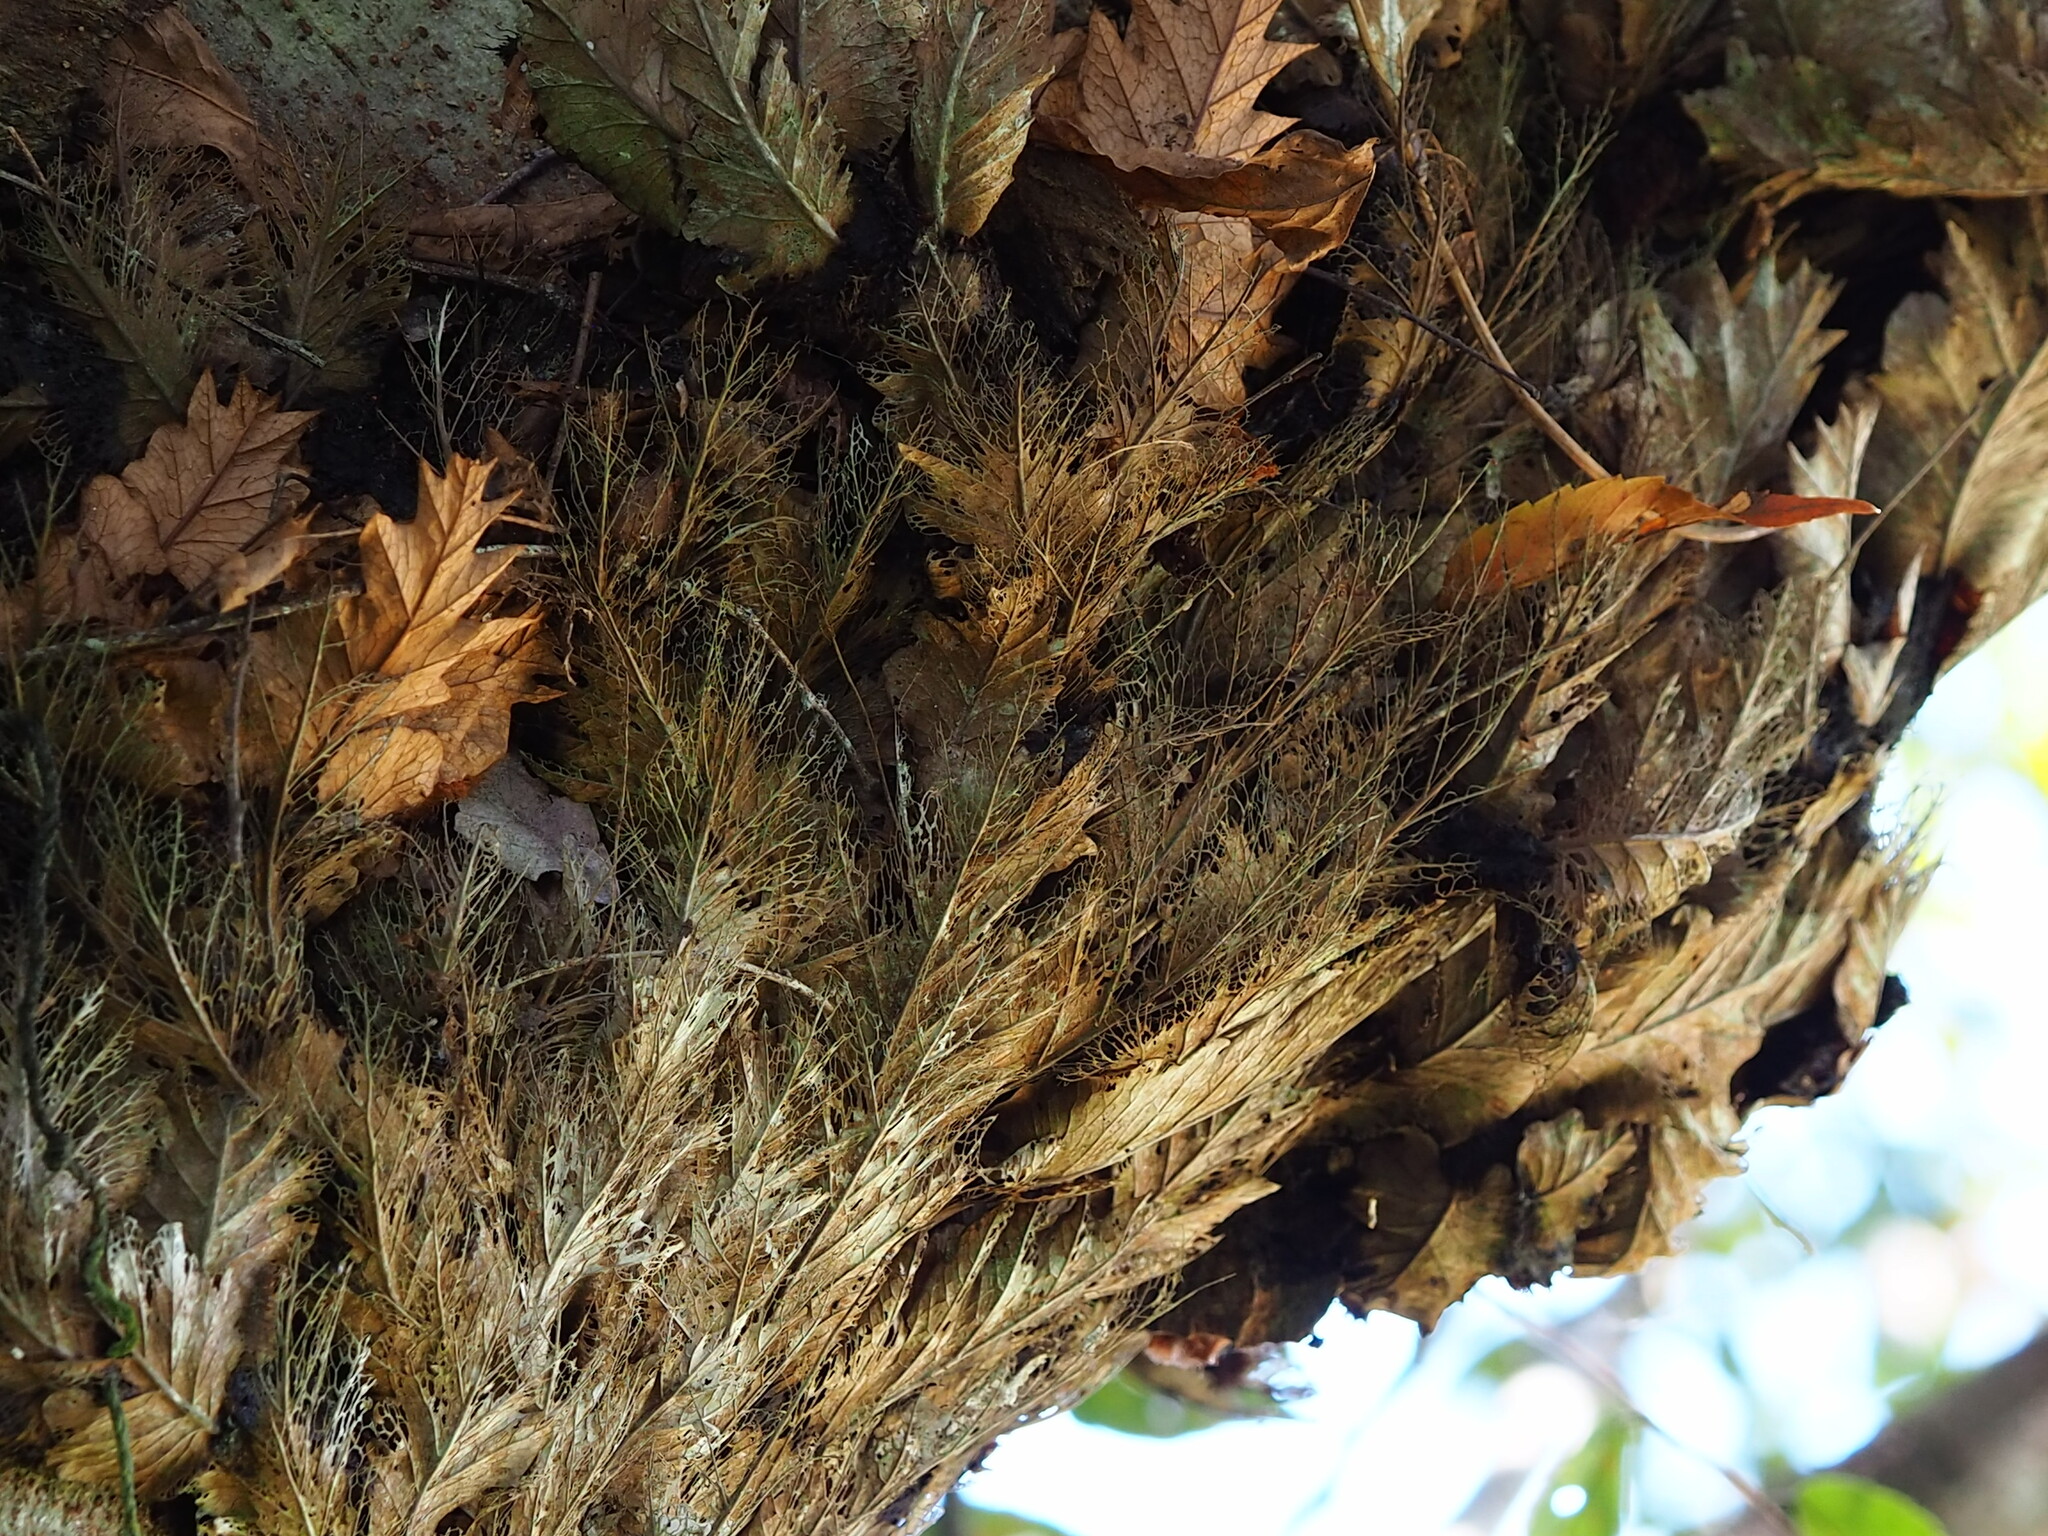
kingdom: Plantae
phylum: Tracheophyta
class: Polypodiopsida
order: Polypodiales
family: Polypodiaceae
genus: Drynaria
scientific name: Drynaria roosii
